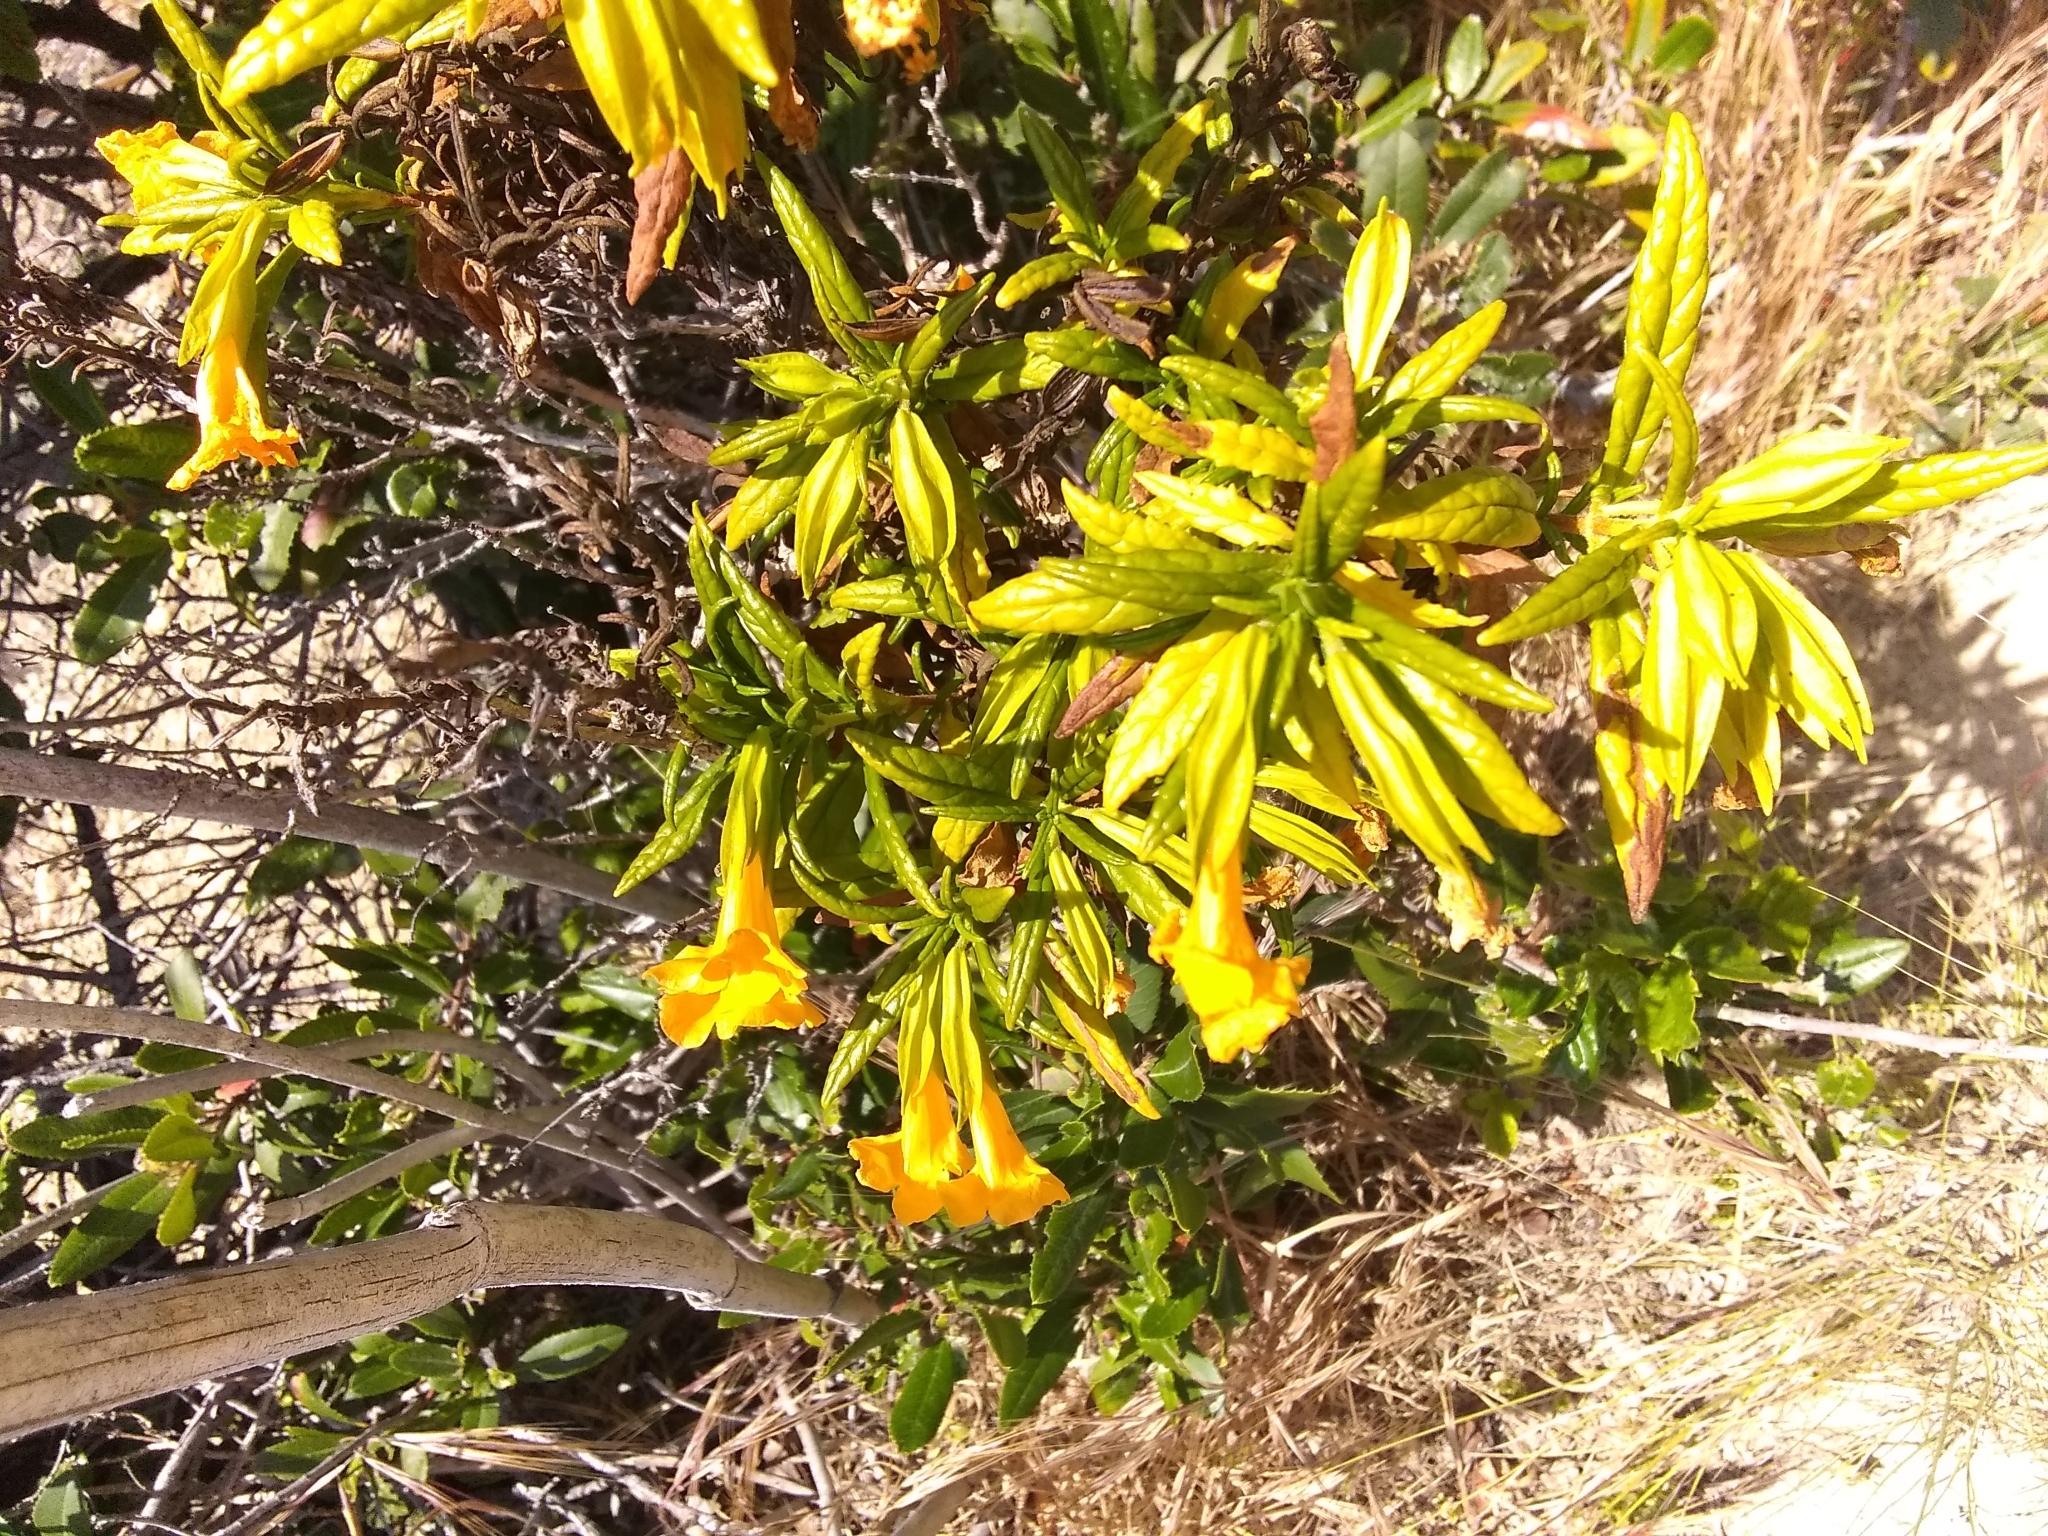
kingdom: Plantae
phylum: Tracheophyta
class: Magnoliopsida
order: Lamiales
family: Phrymaceae
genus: Diplacus
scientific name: Diplacus aurantiacus
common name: Bush monkey-flower
